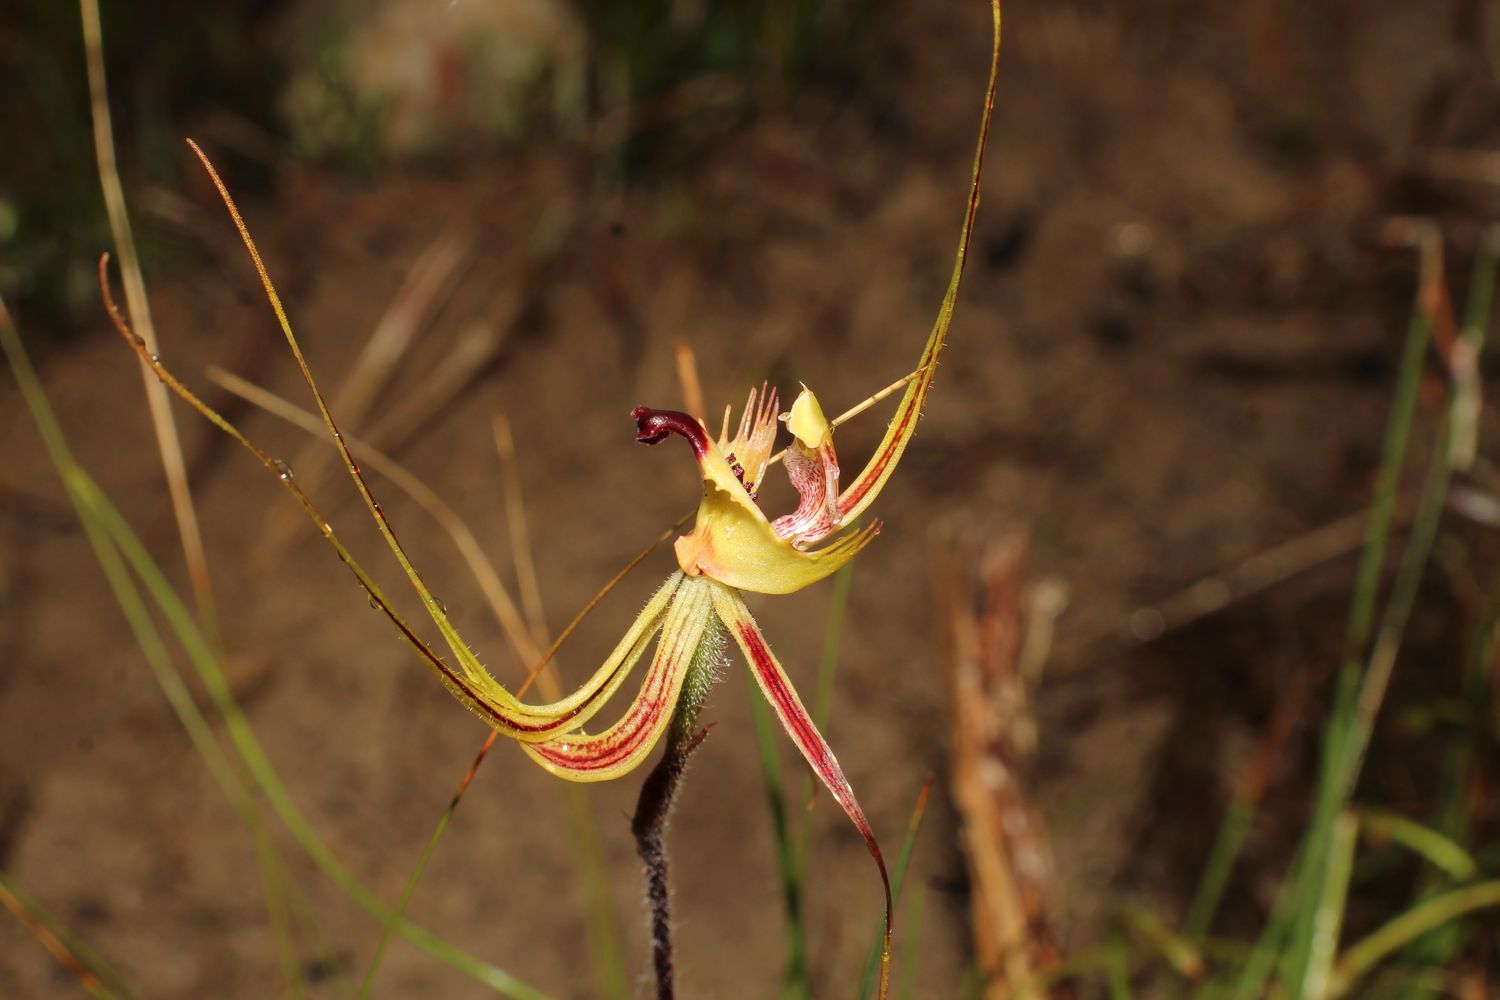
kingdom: Plantae
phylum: Tracheophyta
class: Liliopsida
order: Asparagales
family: Orchidaceae
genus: Caladenia
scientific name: Caladenia falcata
